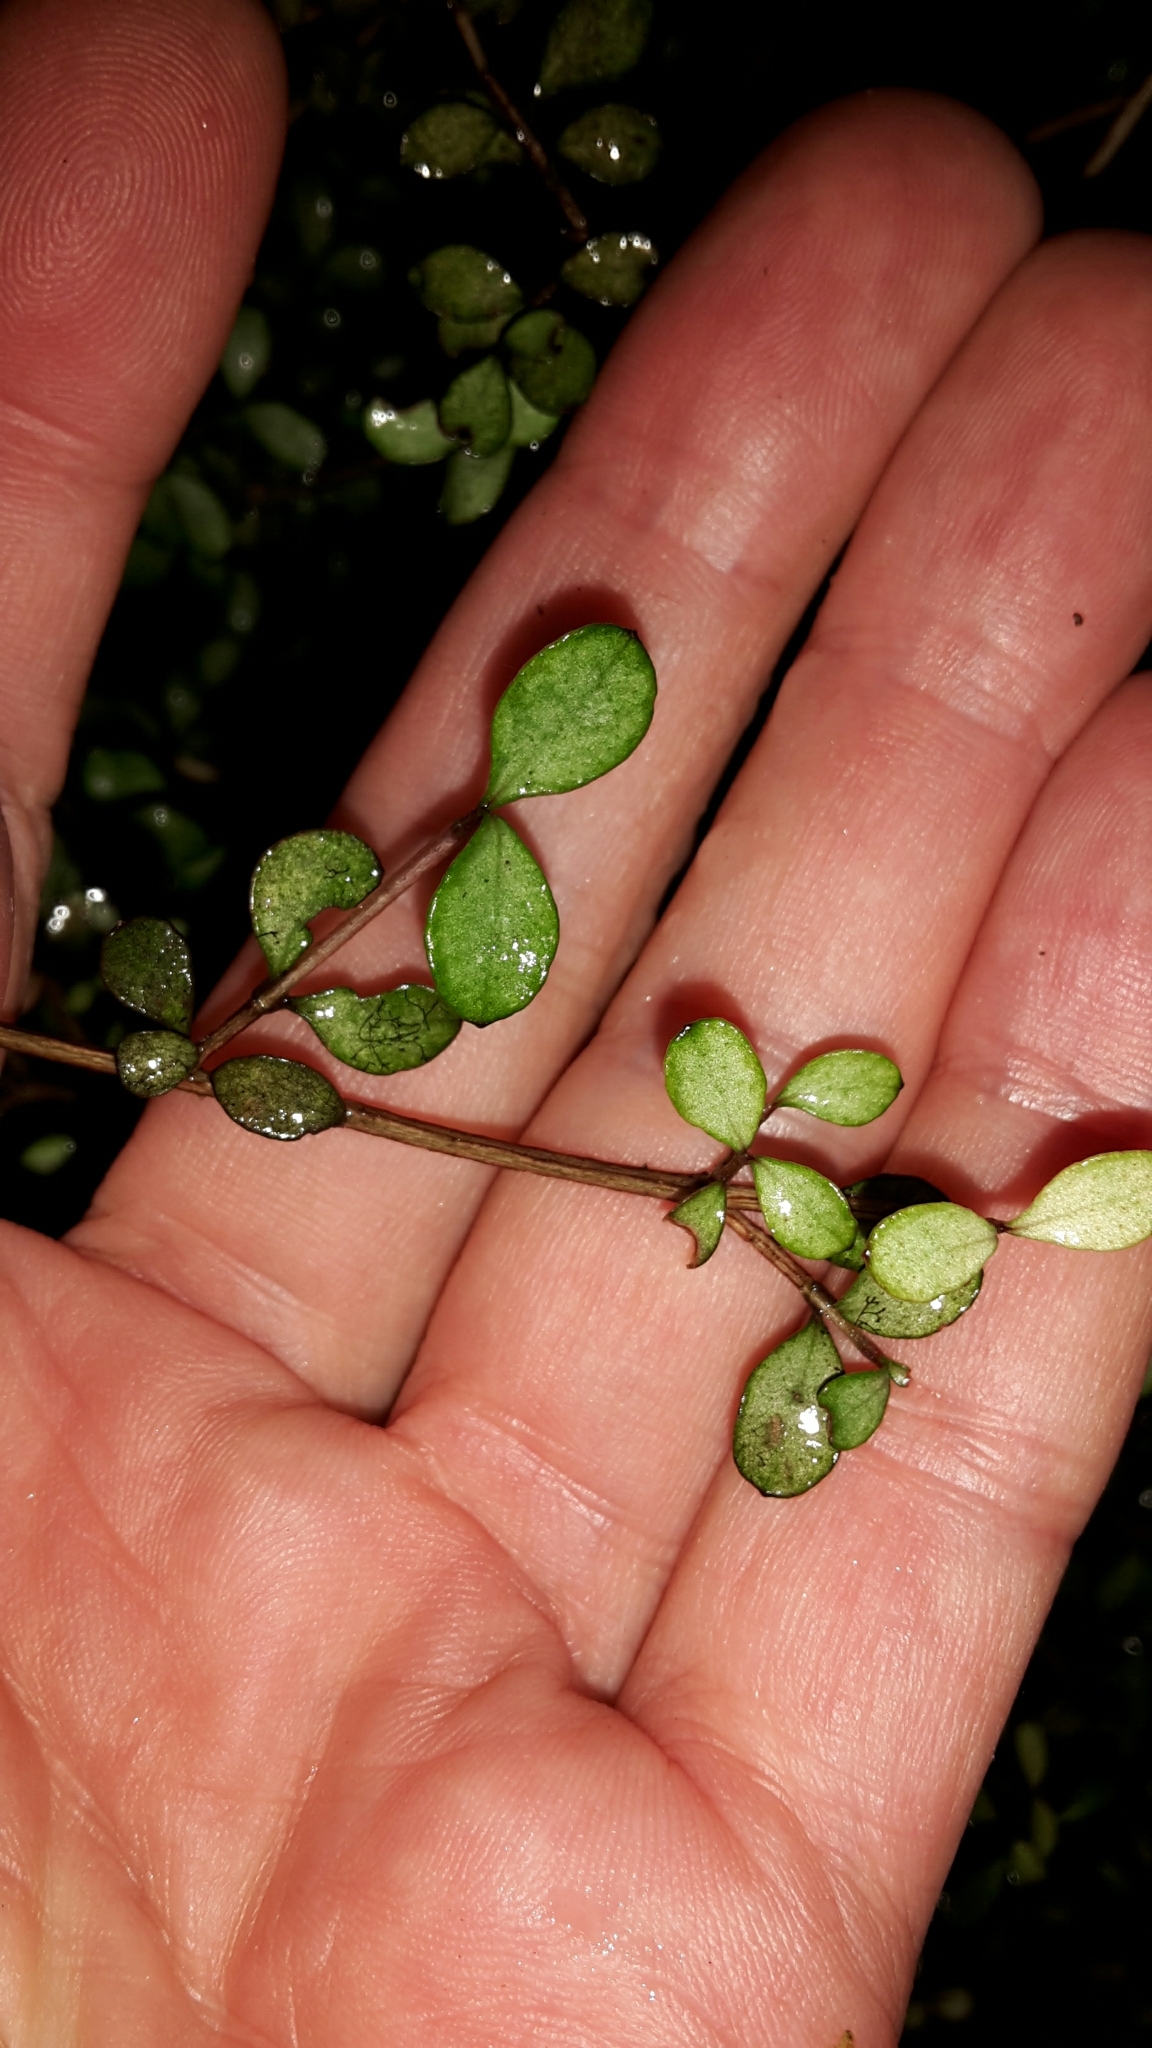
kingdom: Plantae
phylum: Tracheophyta
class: Magnoliopsida
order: Myrtales
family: Myrtaceae
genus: Neomyrtus
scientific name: Neomyrtus pedunculata
